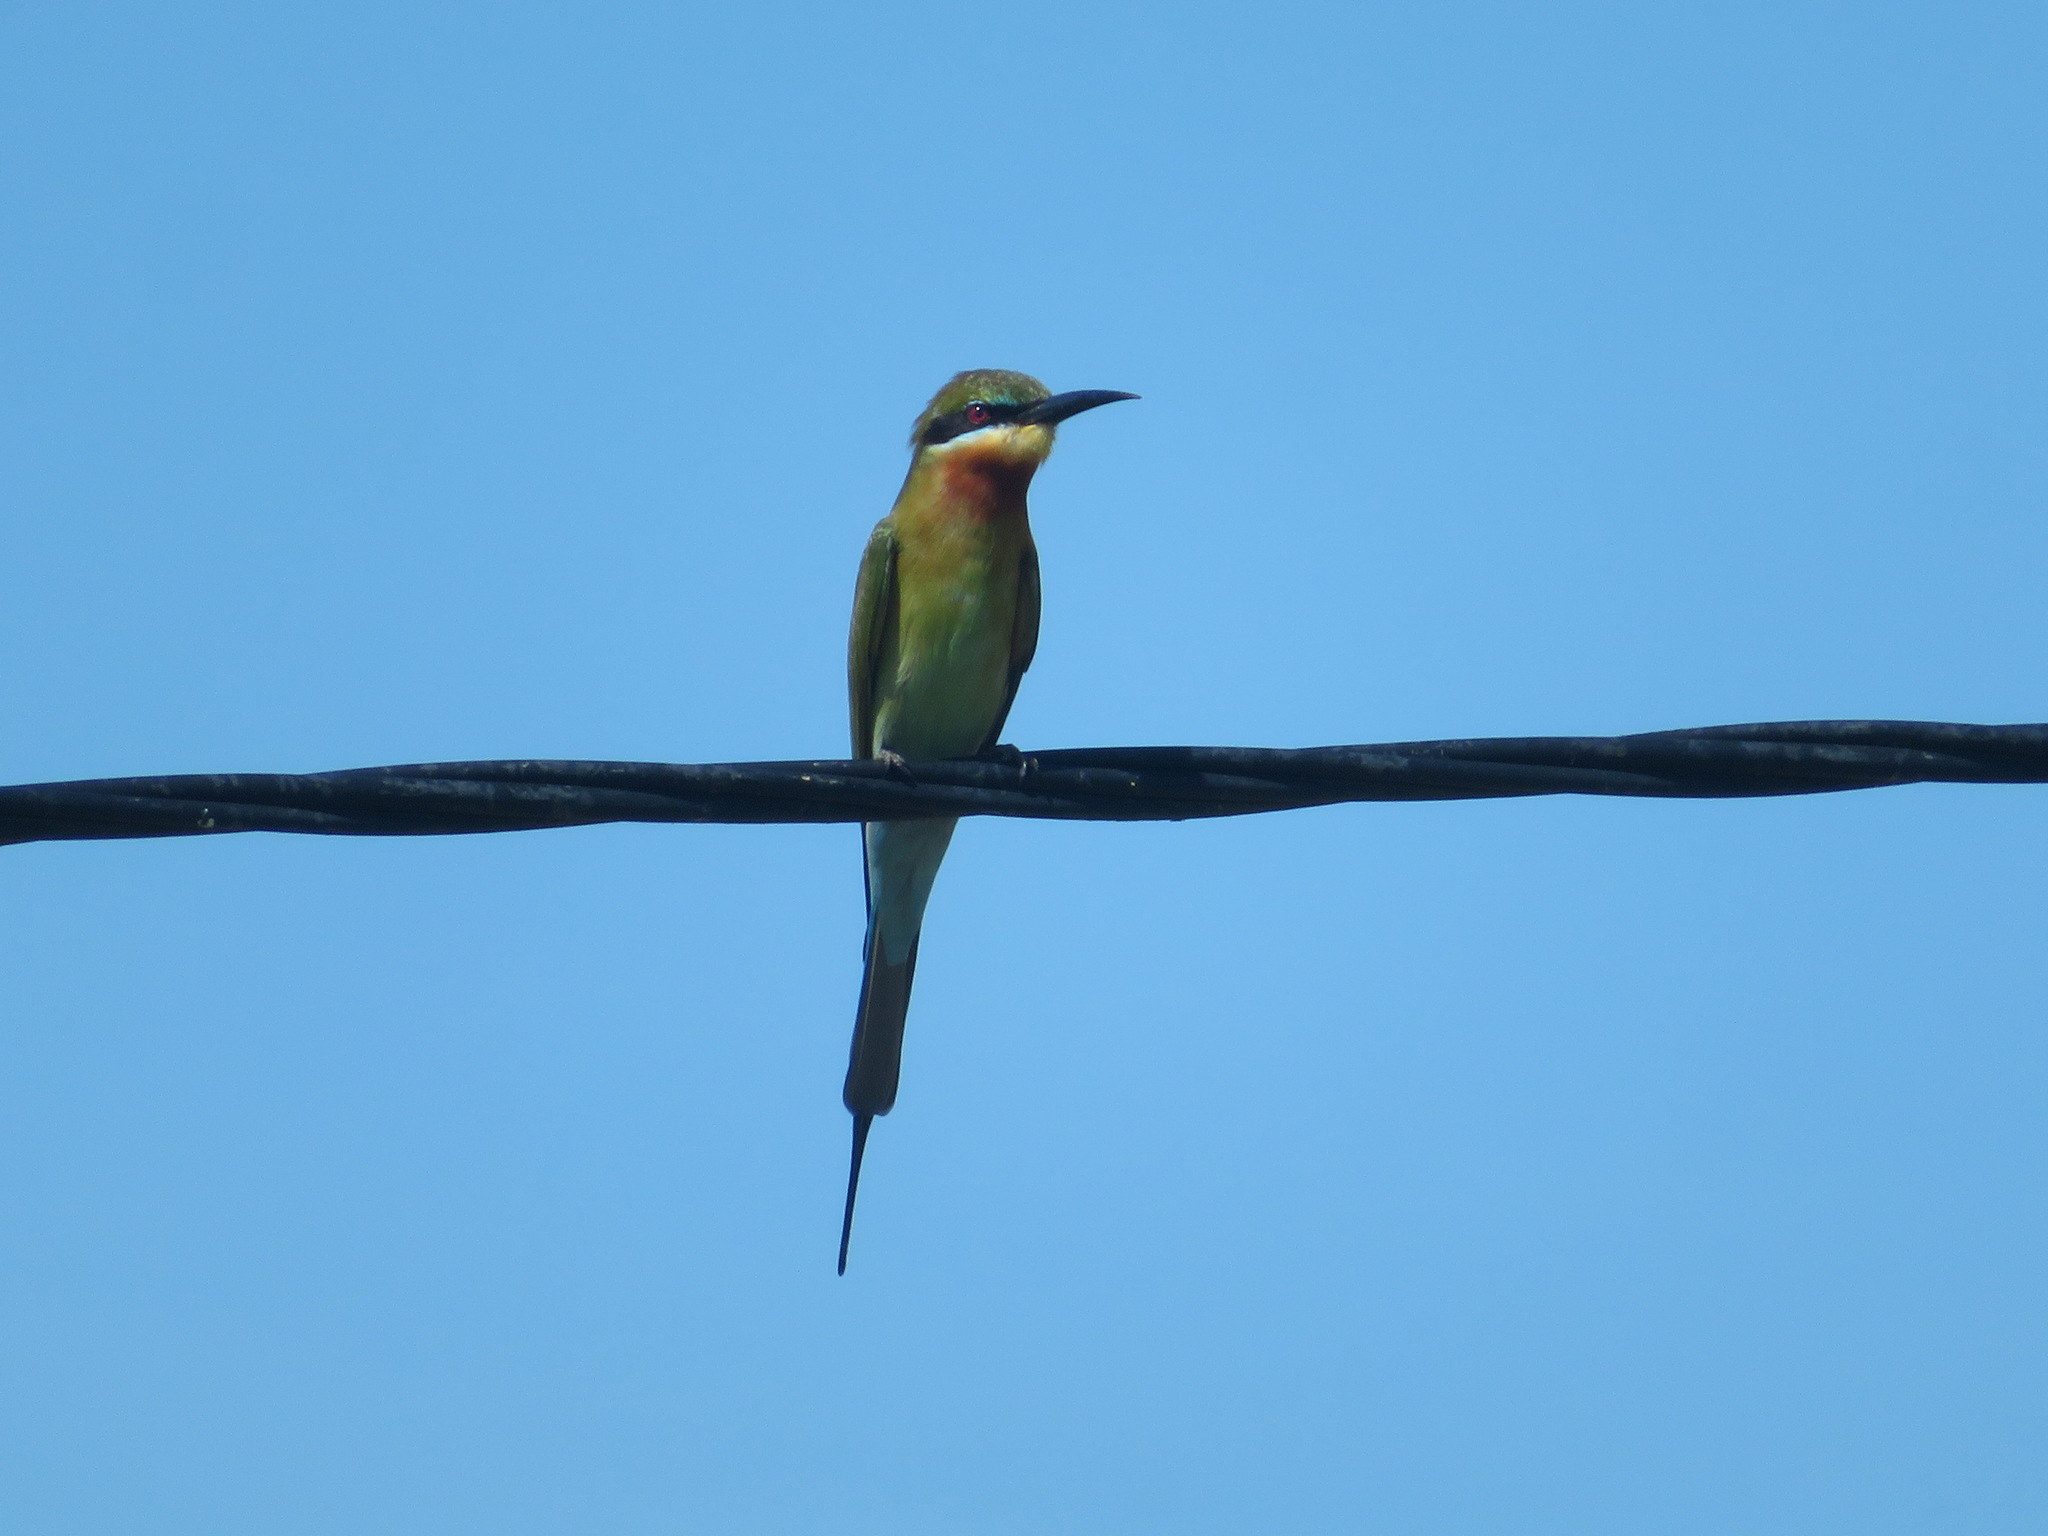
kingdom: Animalia
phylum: Chordata
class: Aves
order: Coraciiformes
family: Meropidae
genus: Merops
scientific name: Merops philippinus
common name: Blue-tailed bee-eater
